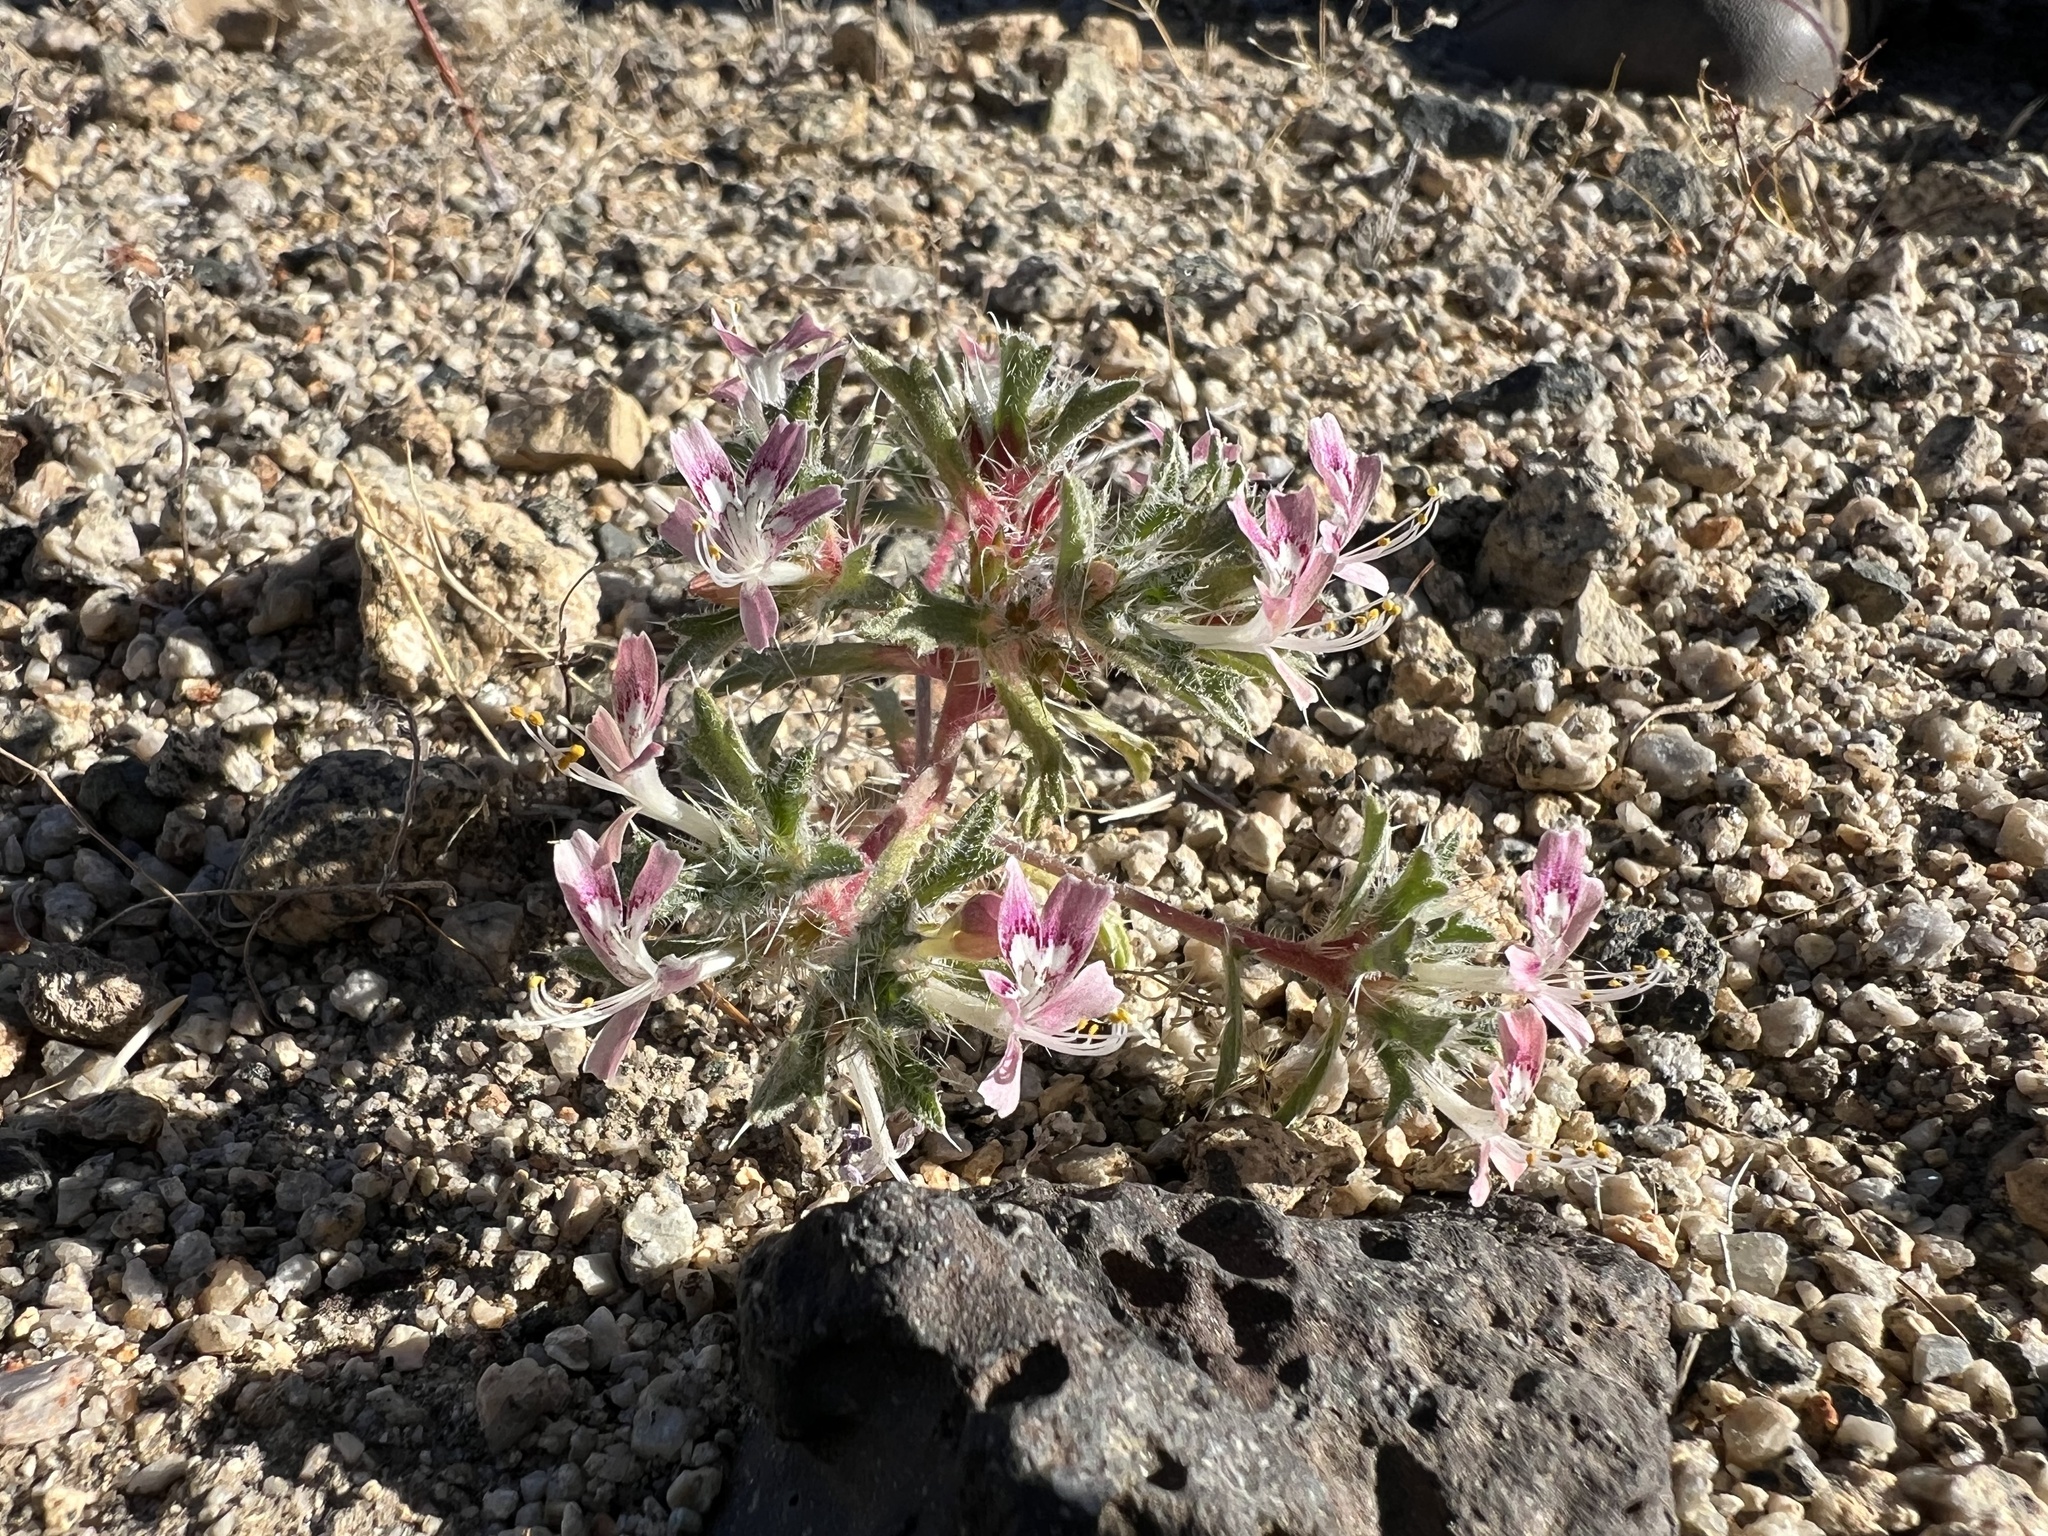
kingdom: Plantae
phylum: Tracheophyta
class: Magnoliopsida
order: Ericales
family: Polemoniaceae
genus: Loeseliastrum
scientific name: Loeseliastrum matthewsii
